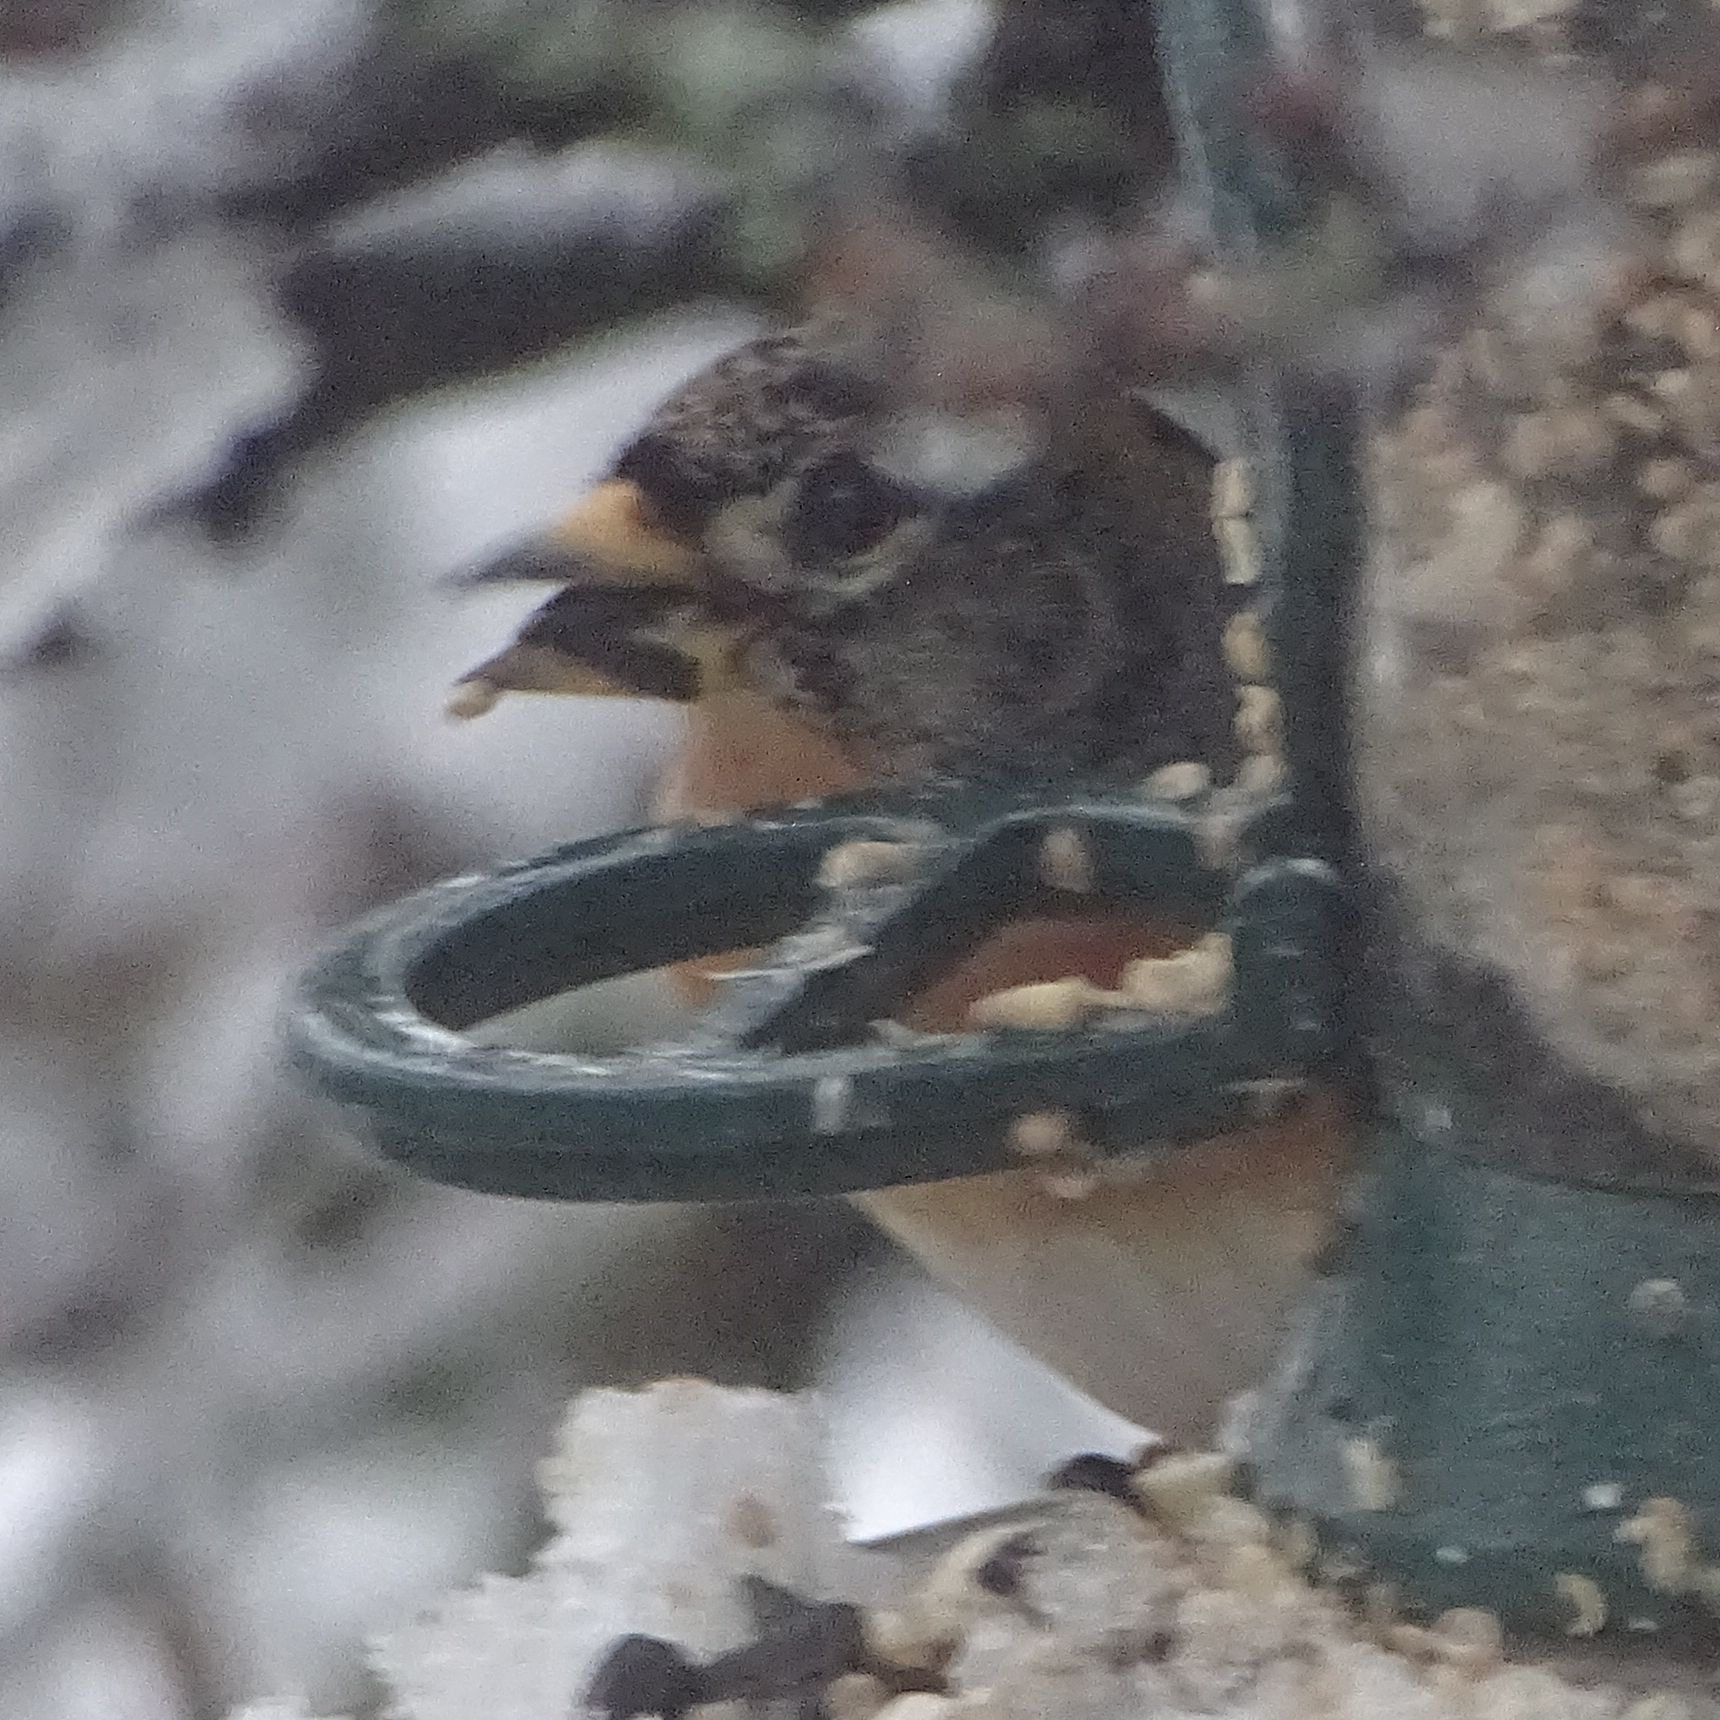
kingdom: Animalia
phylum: Chordata
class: Aves
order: Passeriformes
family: Fringillidae
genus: Fringilla
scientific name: Fringilla montifringilla
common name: Brambling
